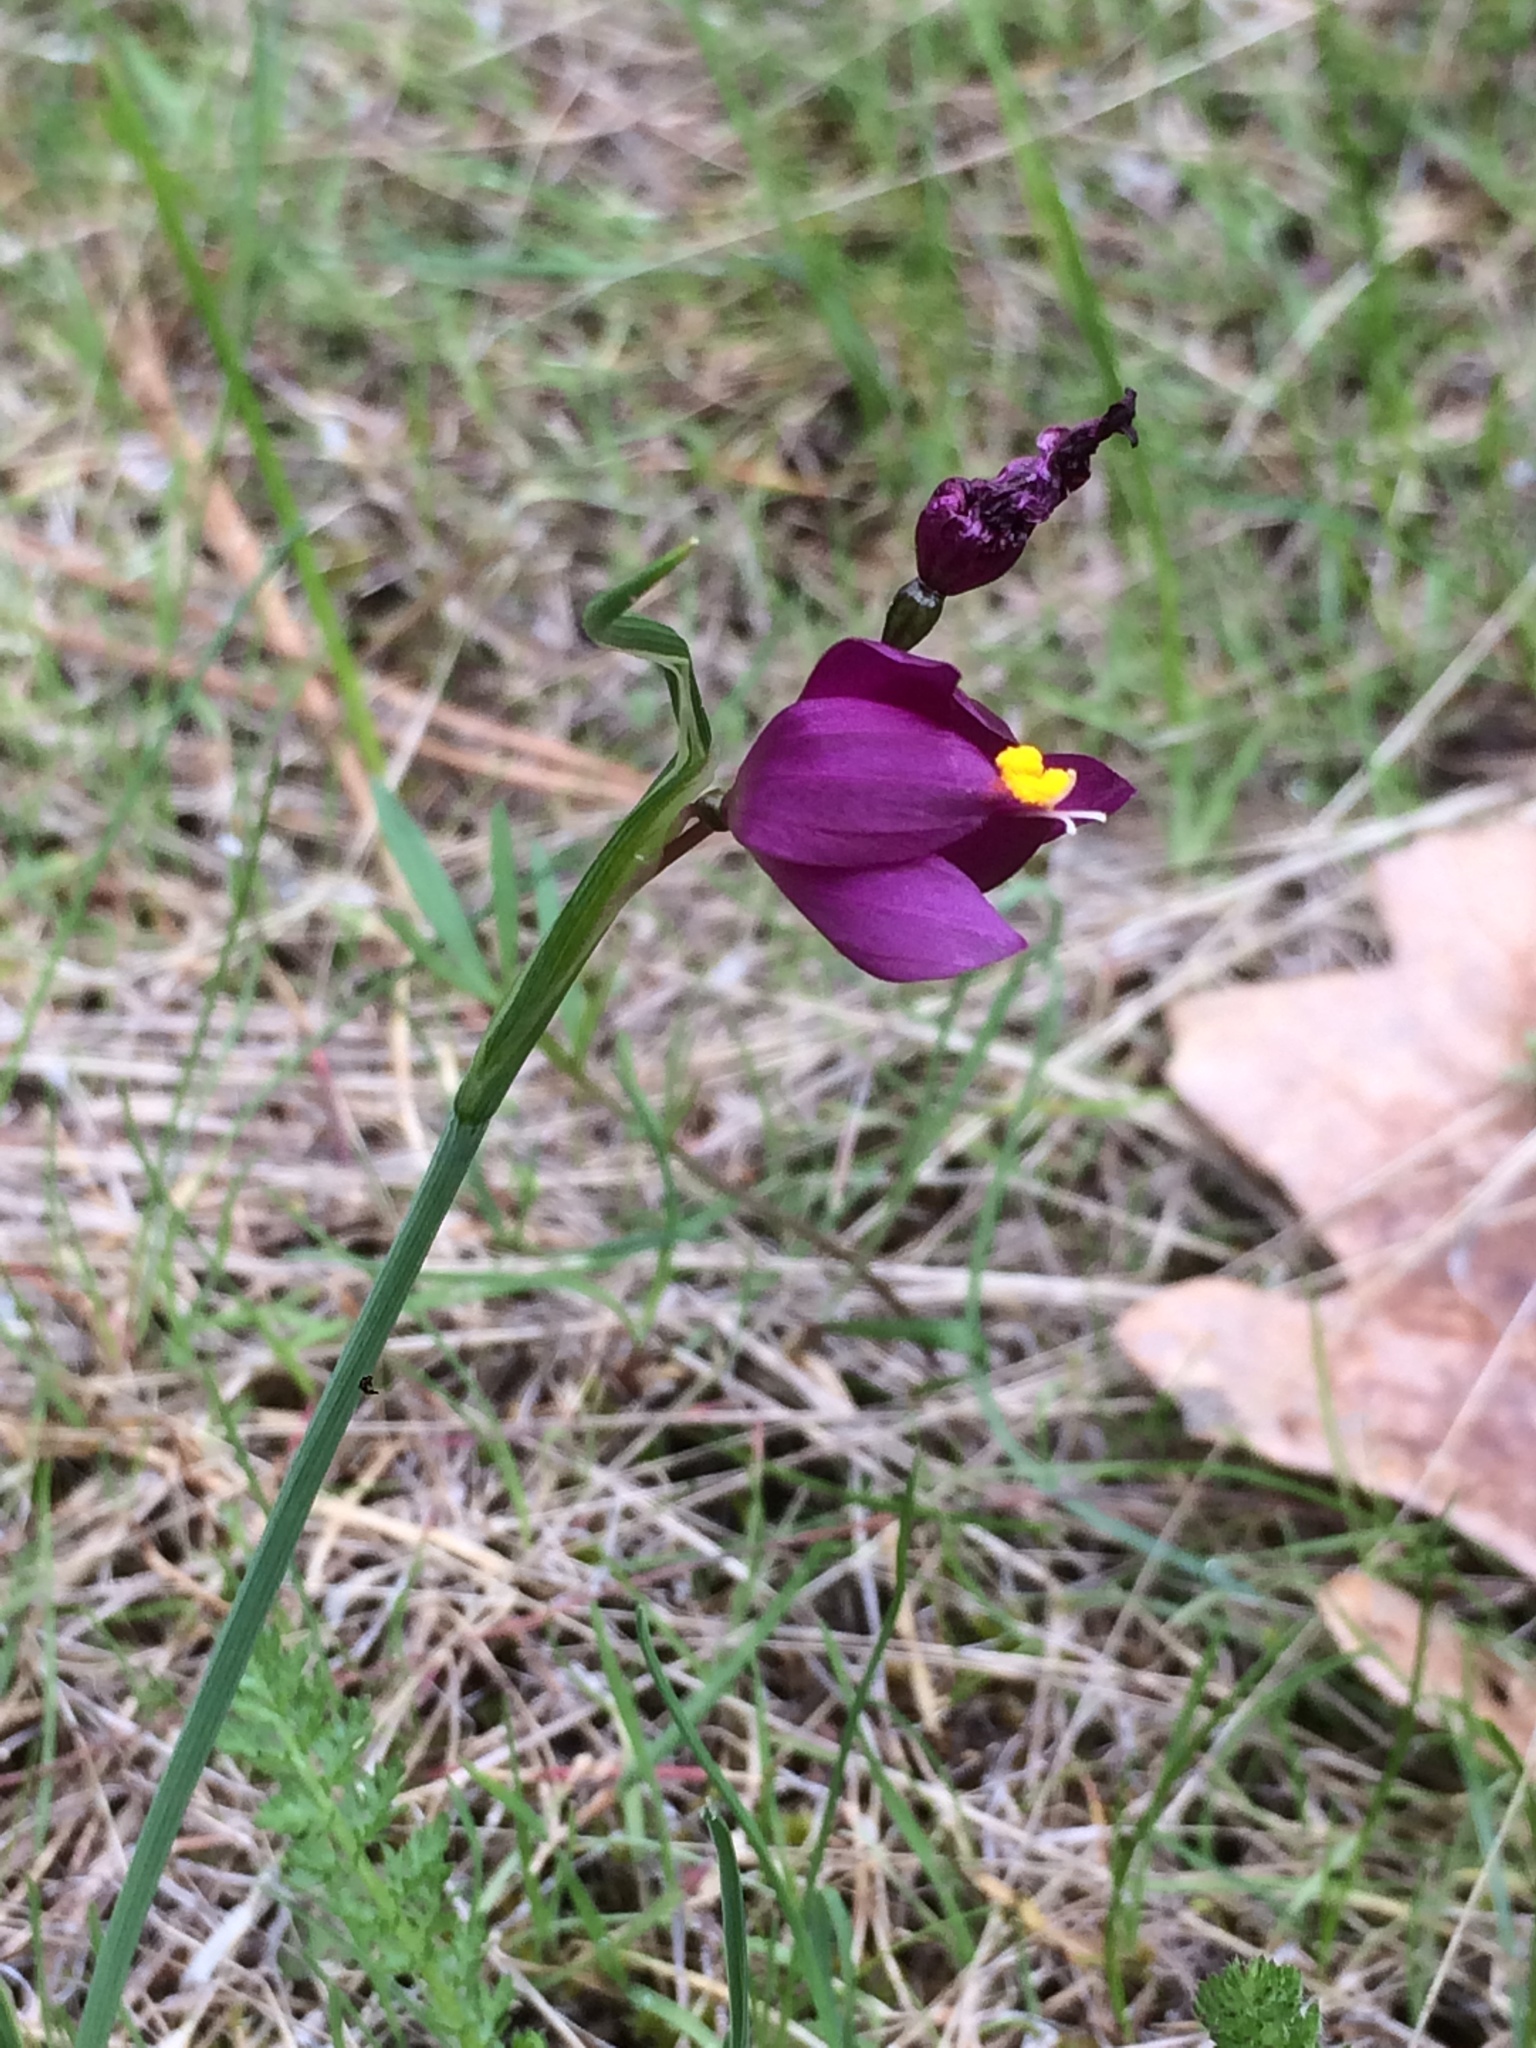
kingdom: Plantae
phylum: Tracheophyta
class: Liliopsida
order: Asparagales
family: Iridaceae
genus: Olsynium
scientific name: Olsynium douglasii
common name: Douglas' grasswidow
